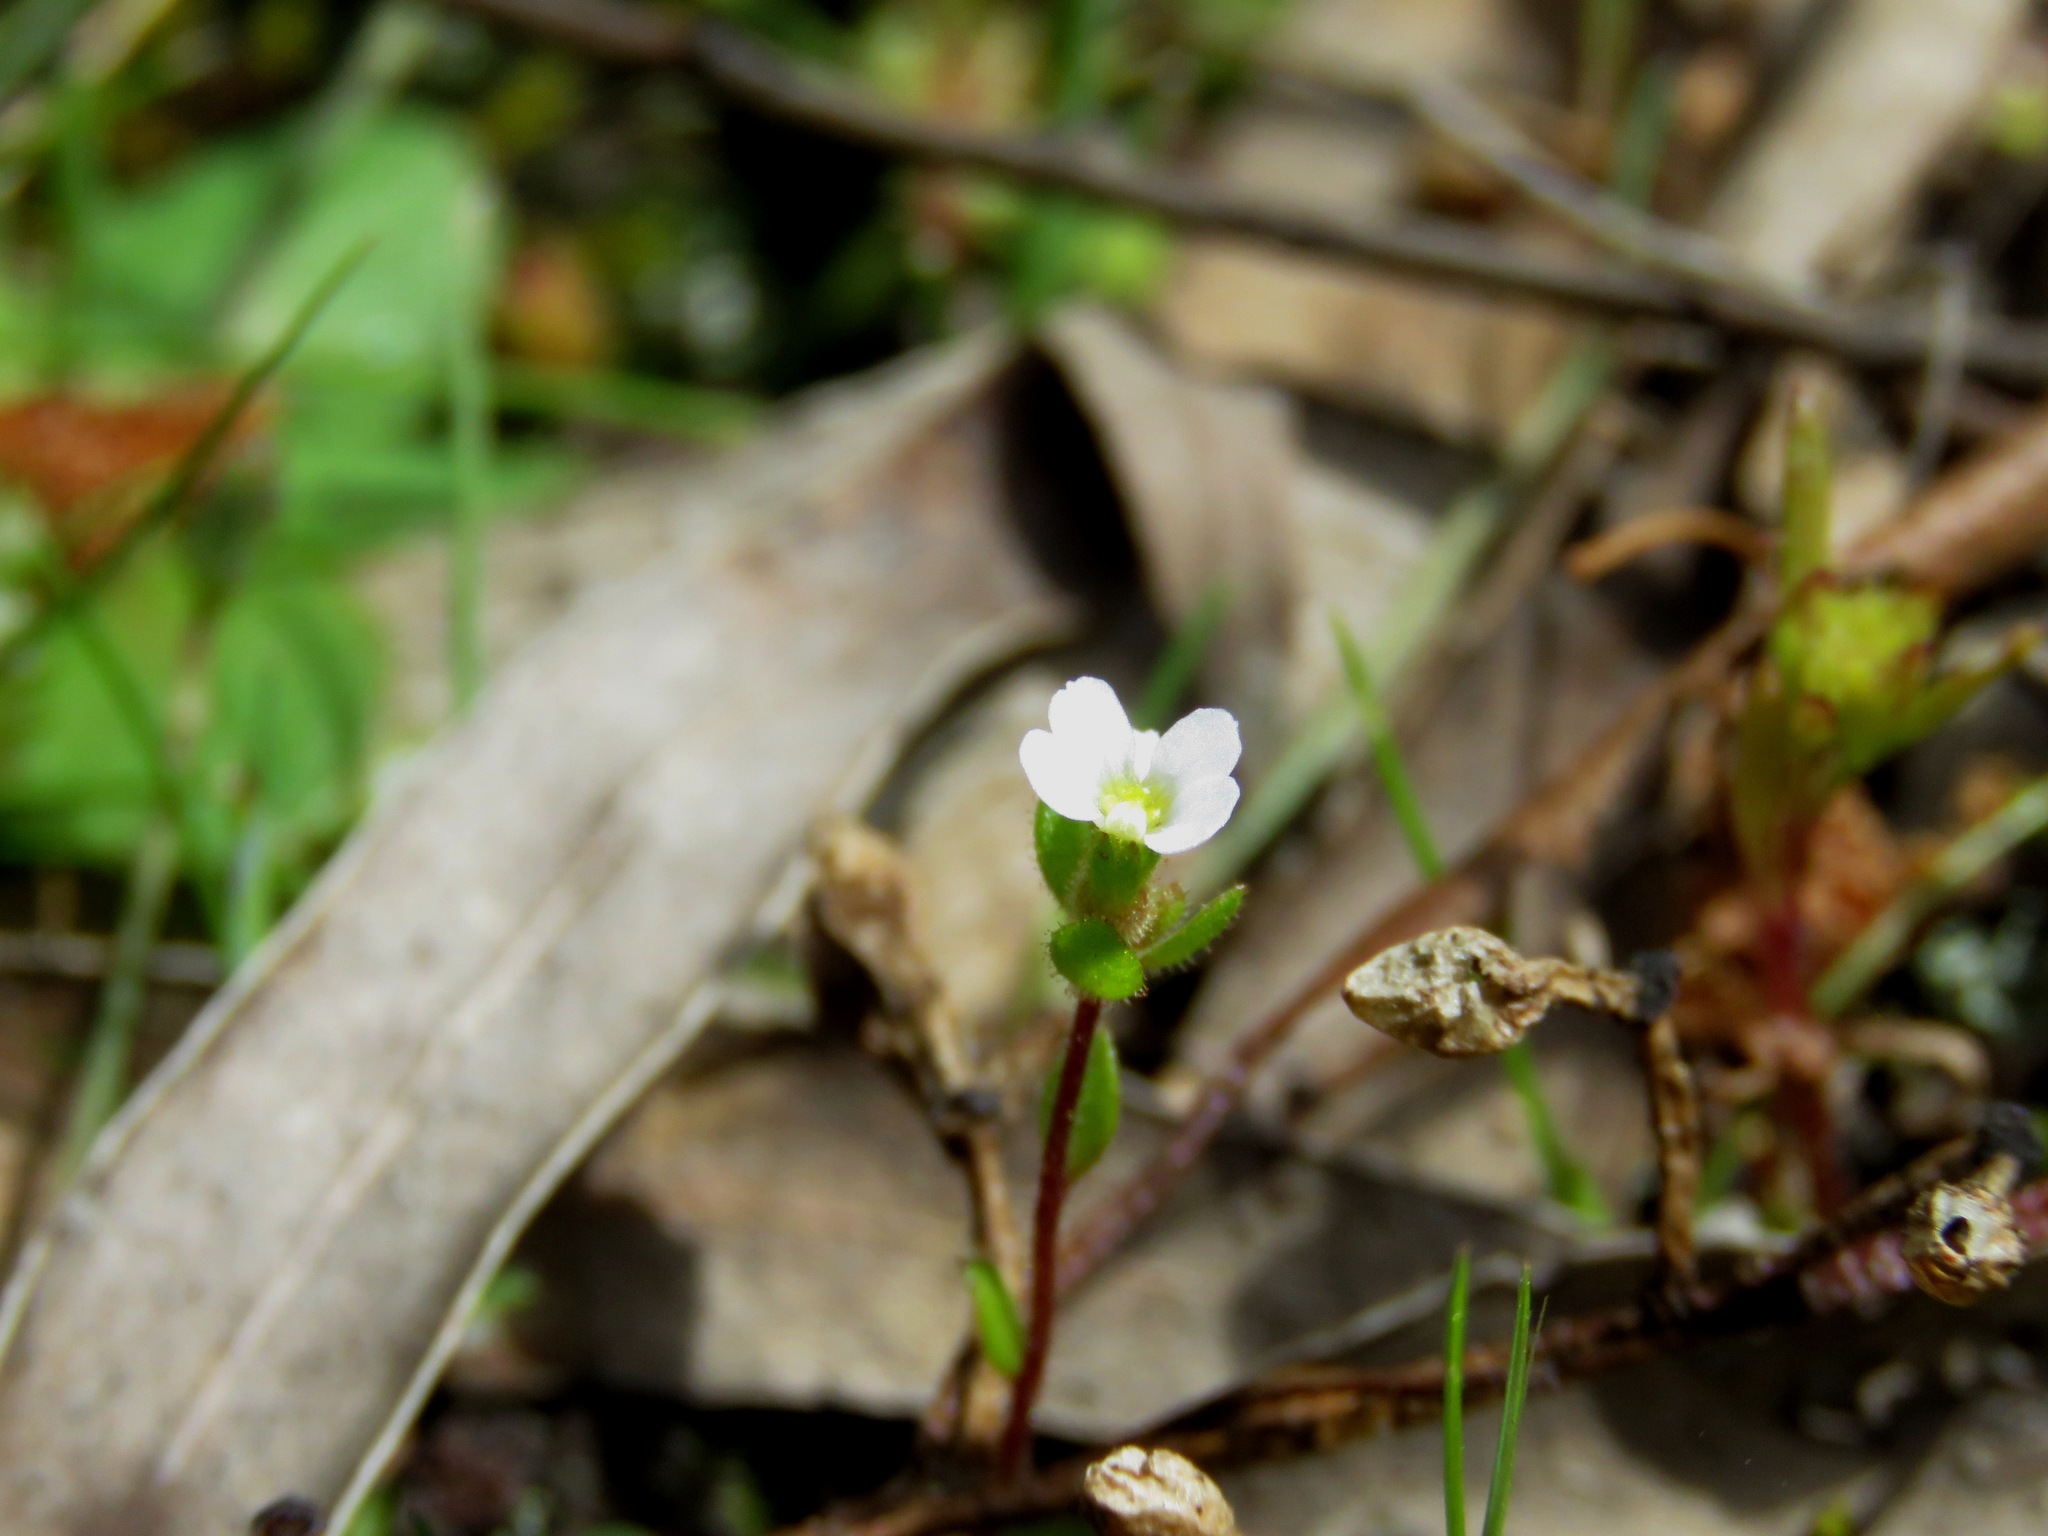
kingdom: Plantae
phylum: Tracheophyta
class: Magnoliopsida
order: Asterales
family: Stylidiaceae
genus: Levenhookia
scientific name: Levenhookia dubia
